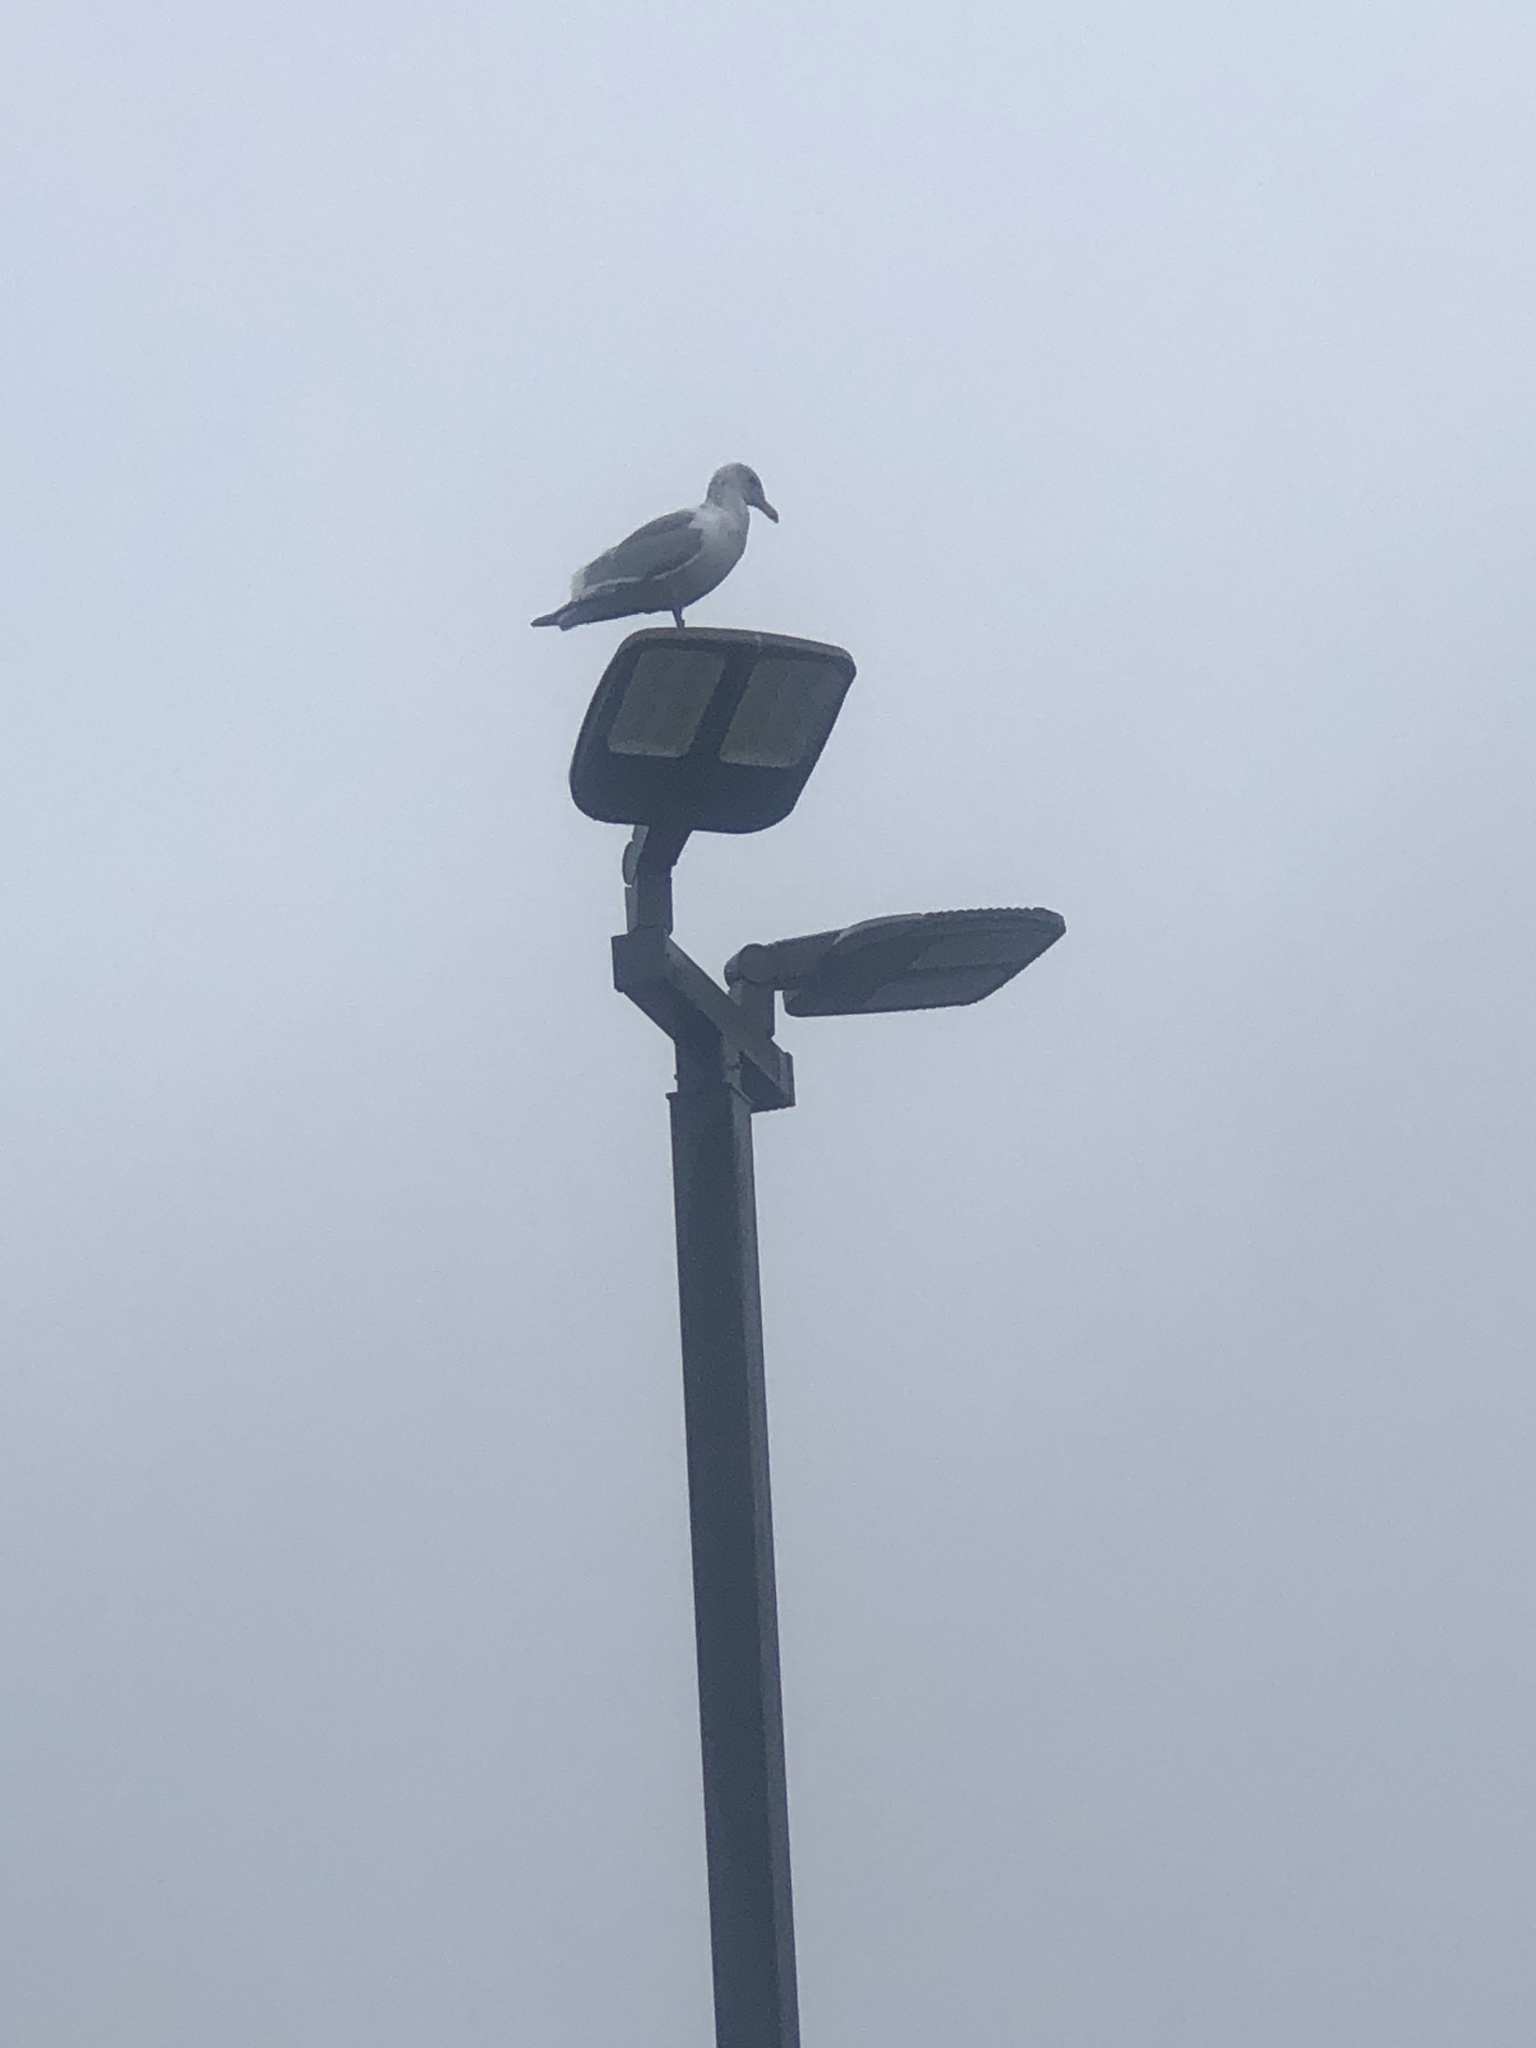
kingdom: Animalia
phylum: Chordata
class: Aves
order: Charadriiformes
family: Laridae
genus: Larus
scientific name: Larus
